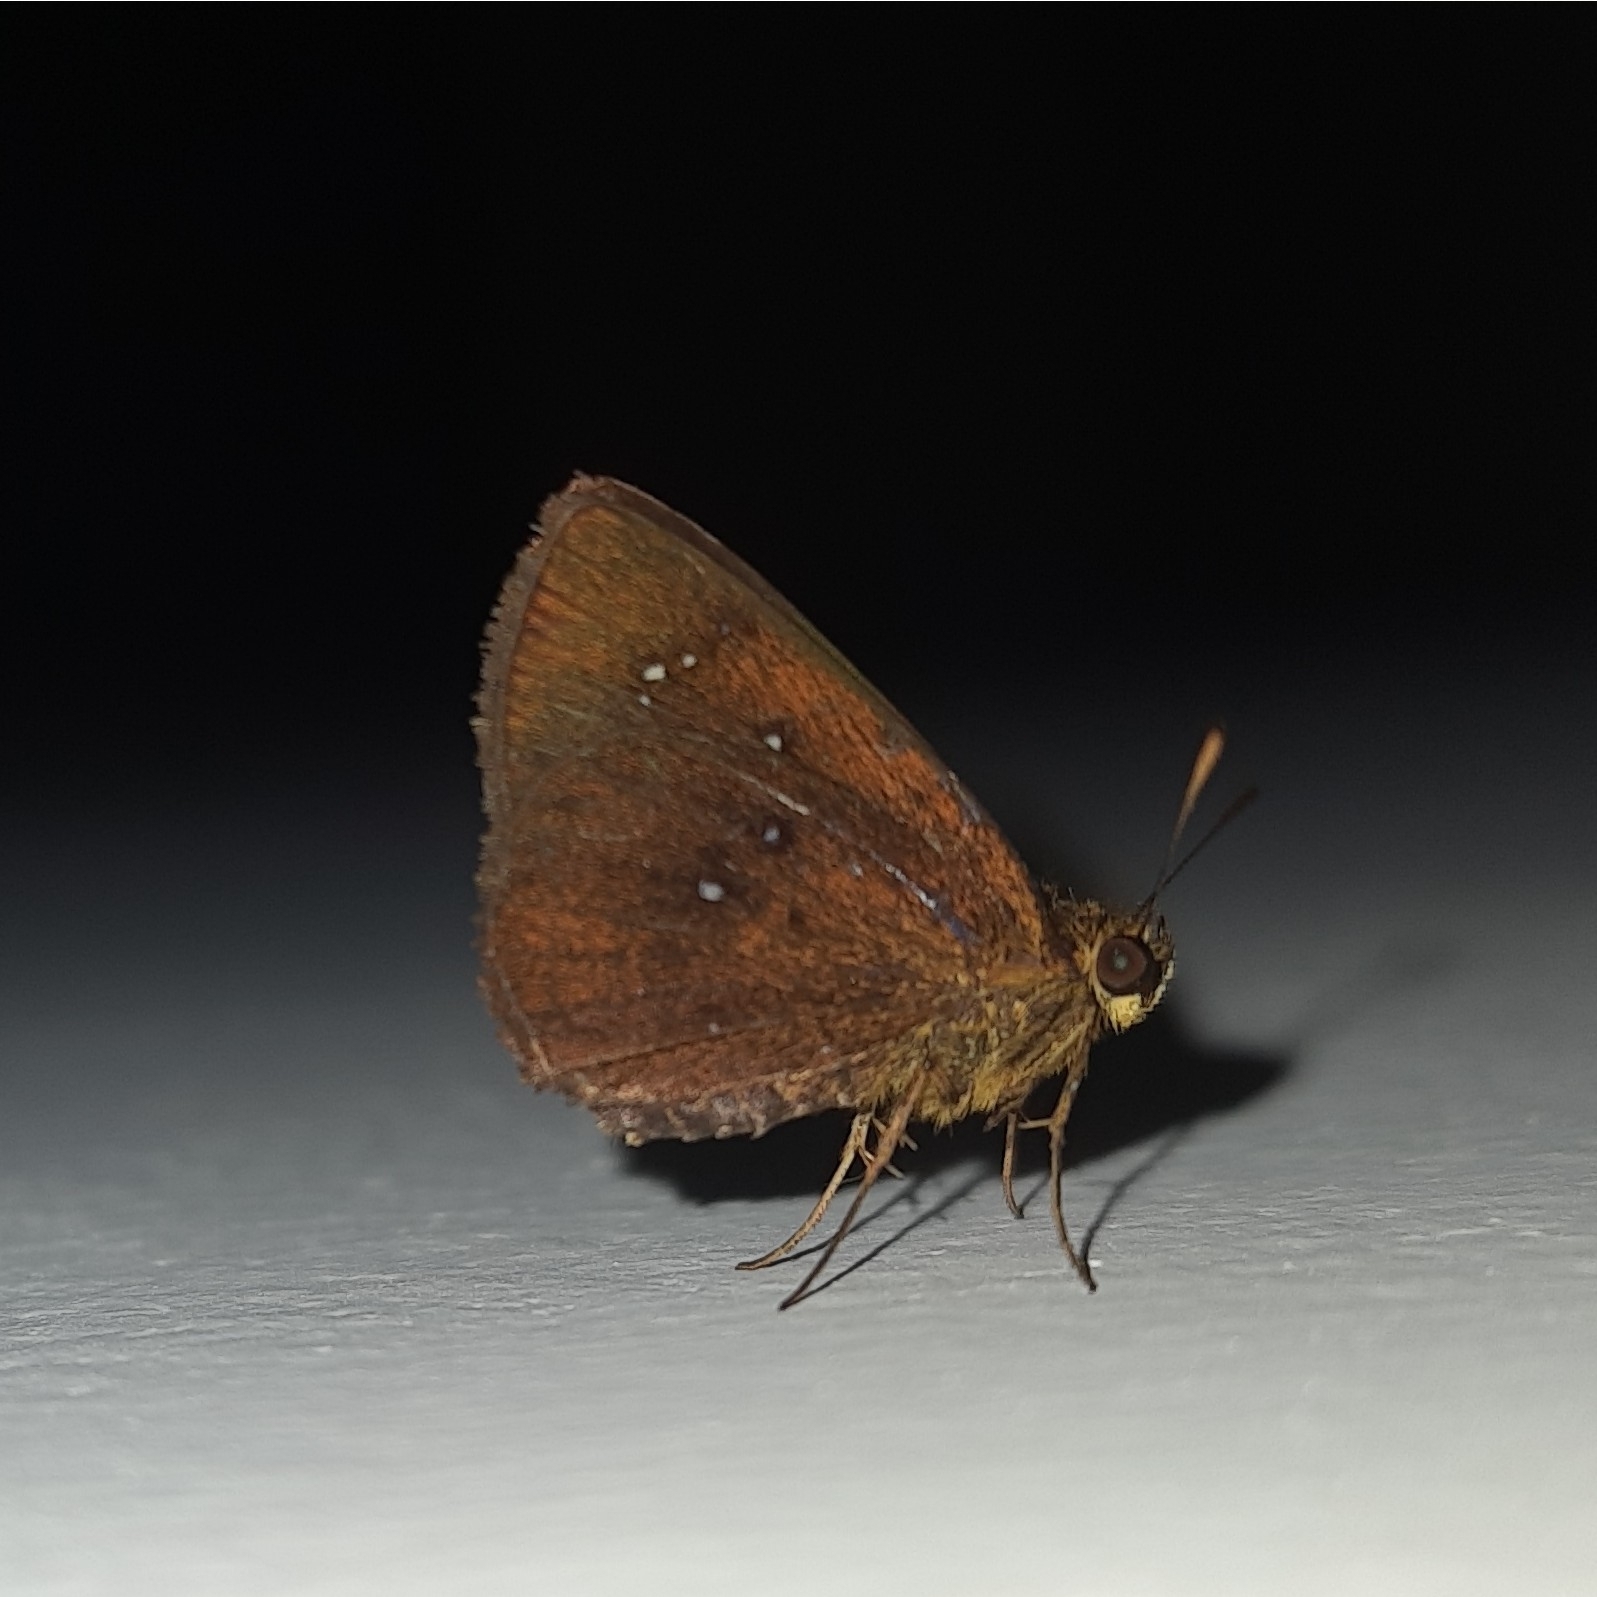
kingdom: Animalia
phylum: Arthropoda
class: Insecta
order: Lepidoptera
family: Hesperiidae
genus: Iambrix
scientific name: Iambrix salsala
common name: Chestnut bob
